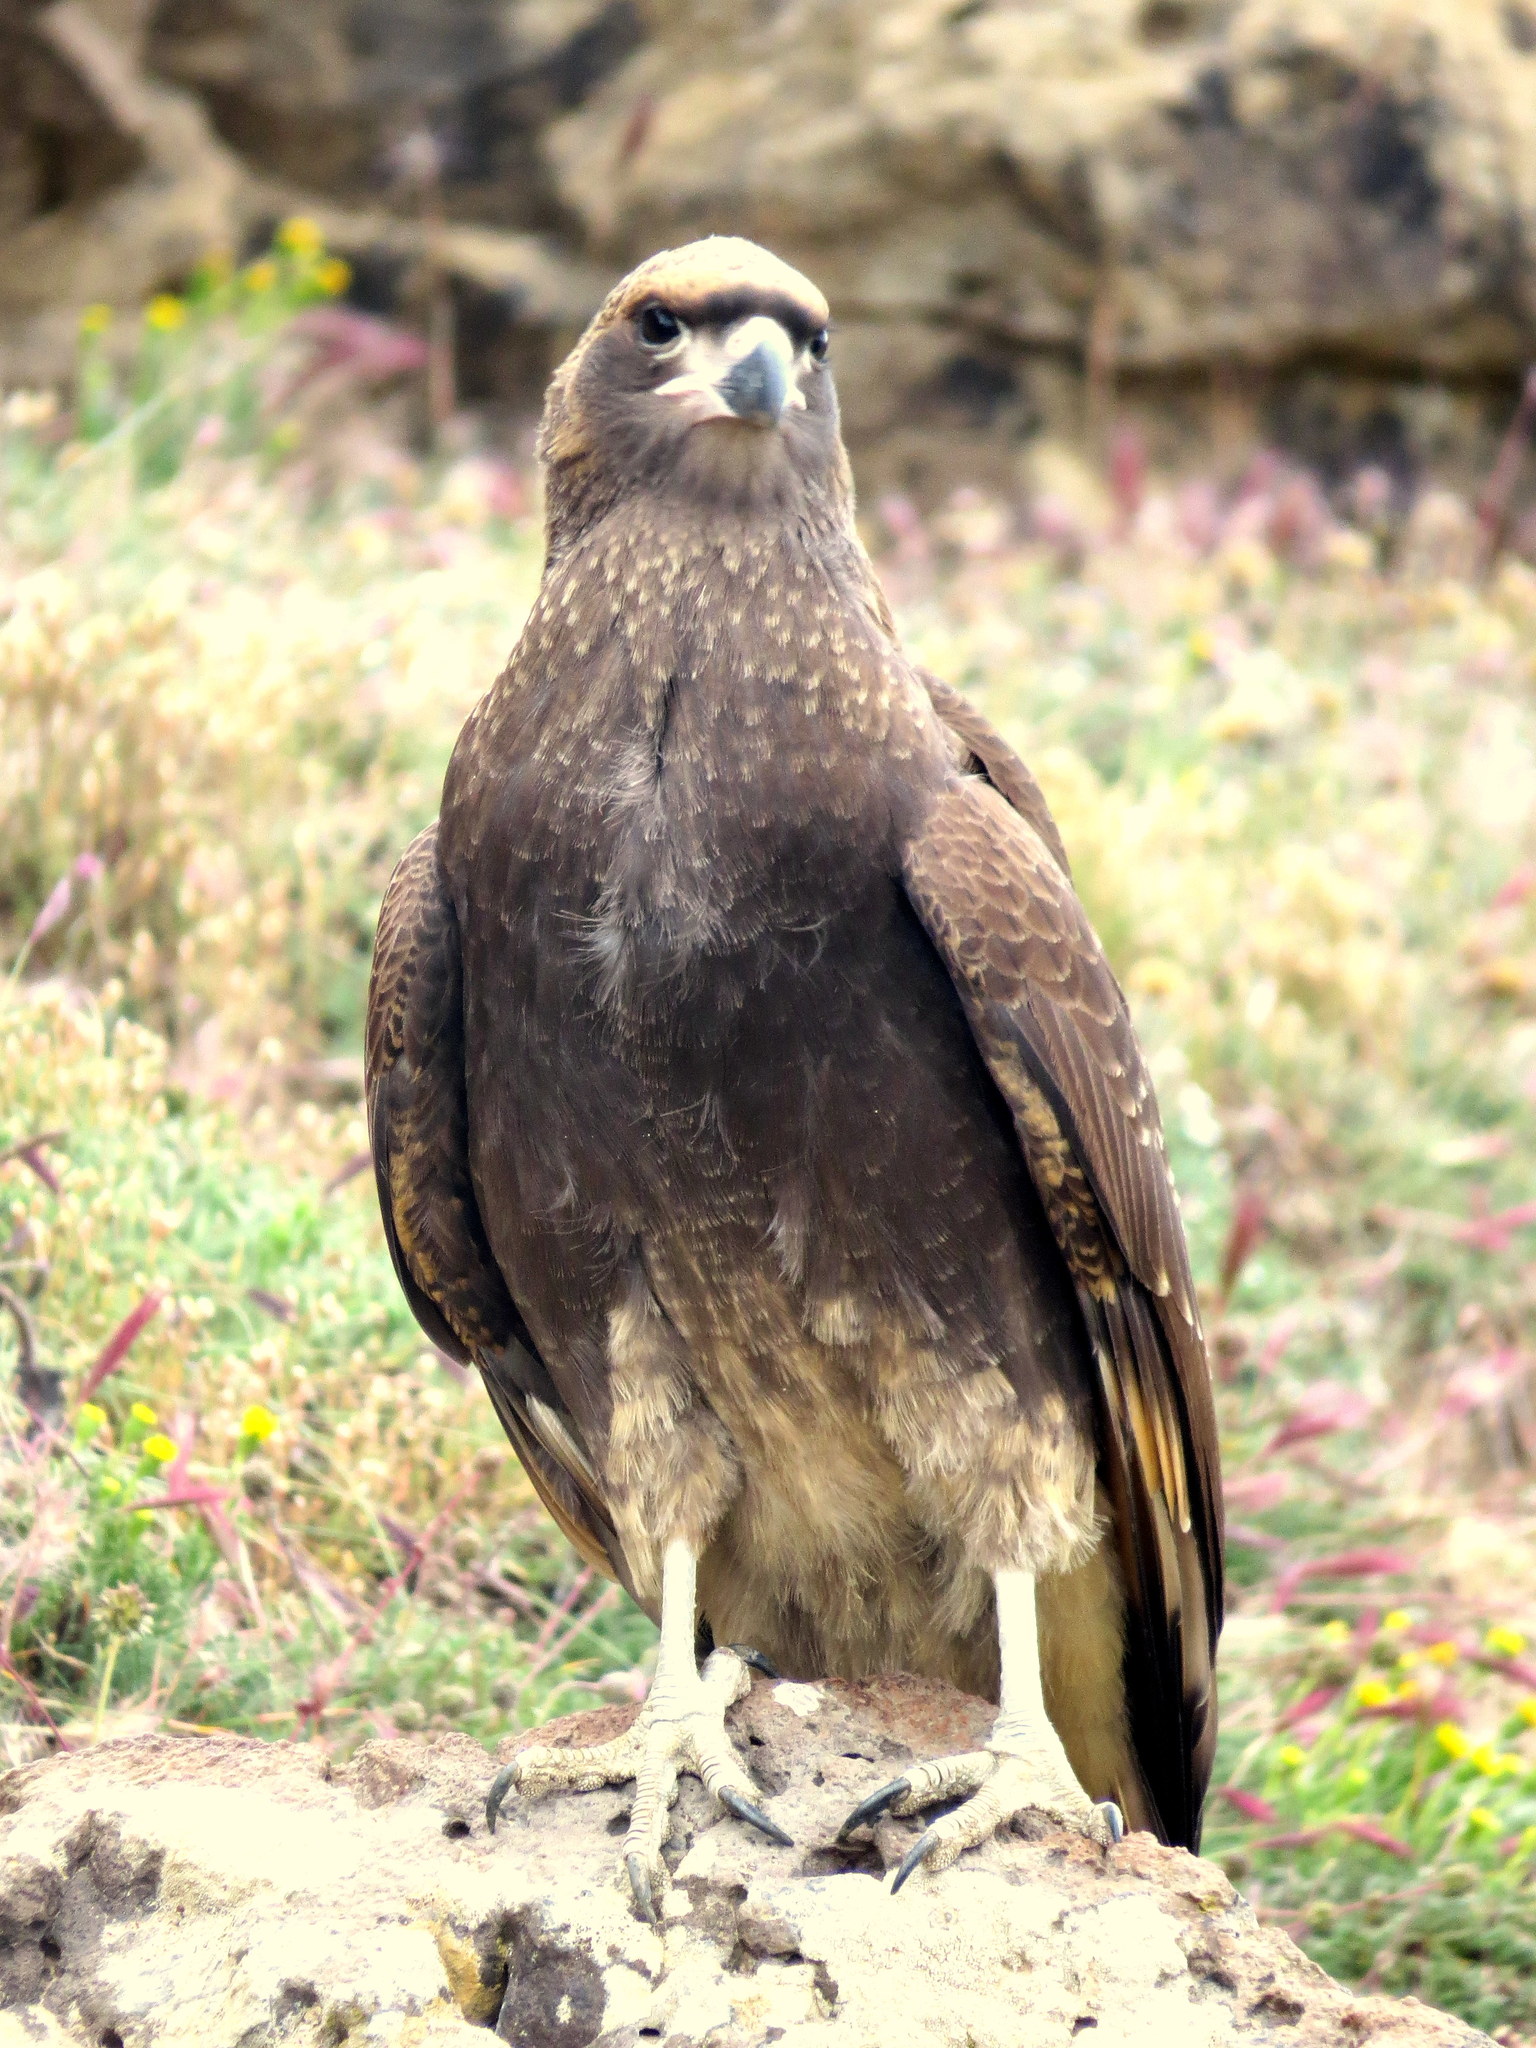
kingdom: Animalia
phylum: Chordata
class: Aves
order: Falconiformes
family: Falconidae
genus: Daptrius
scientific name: Daptrius
